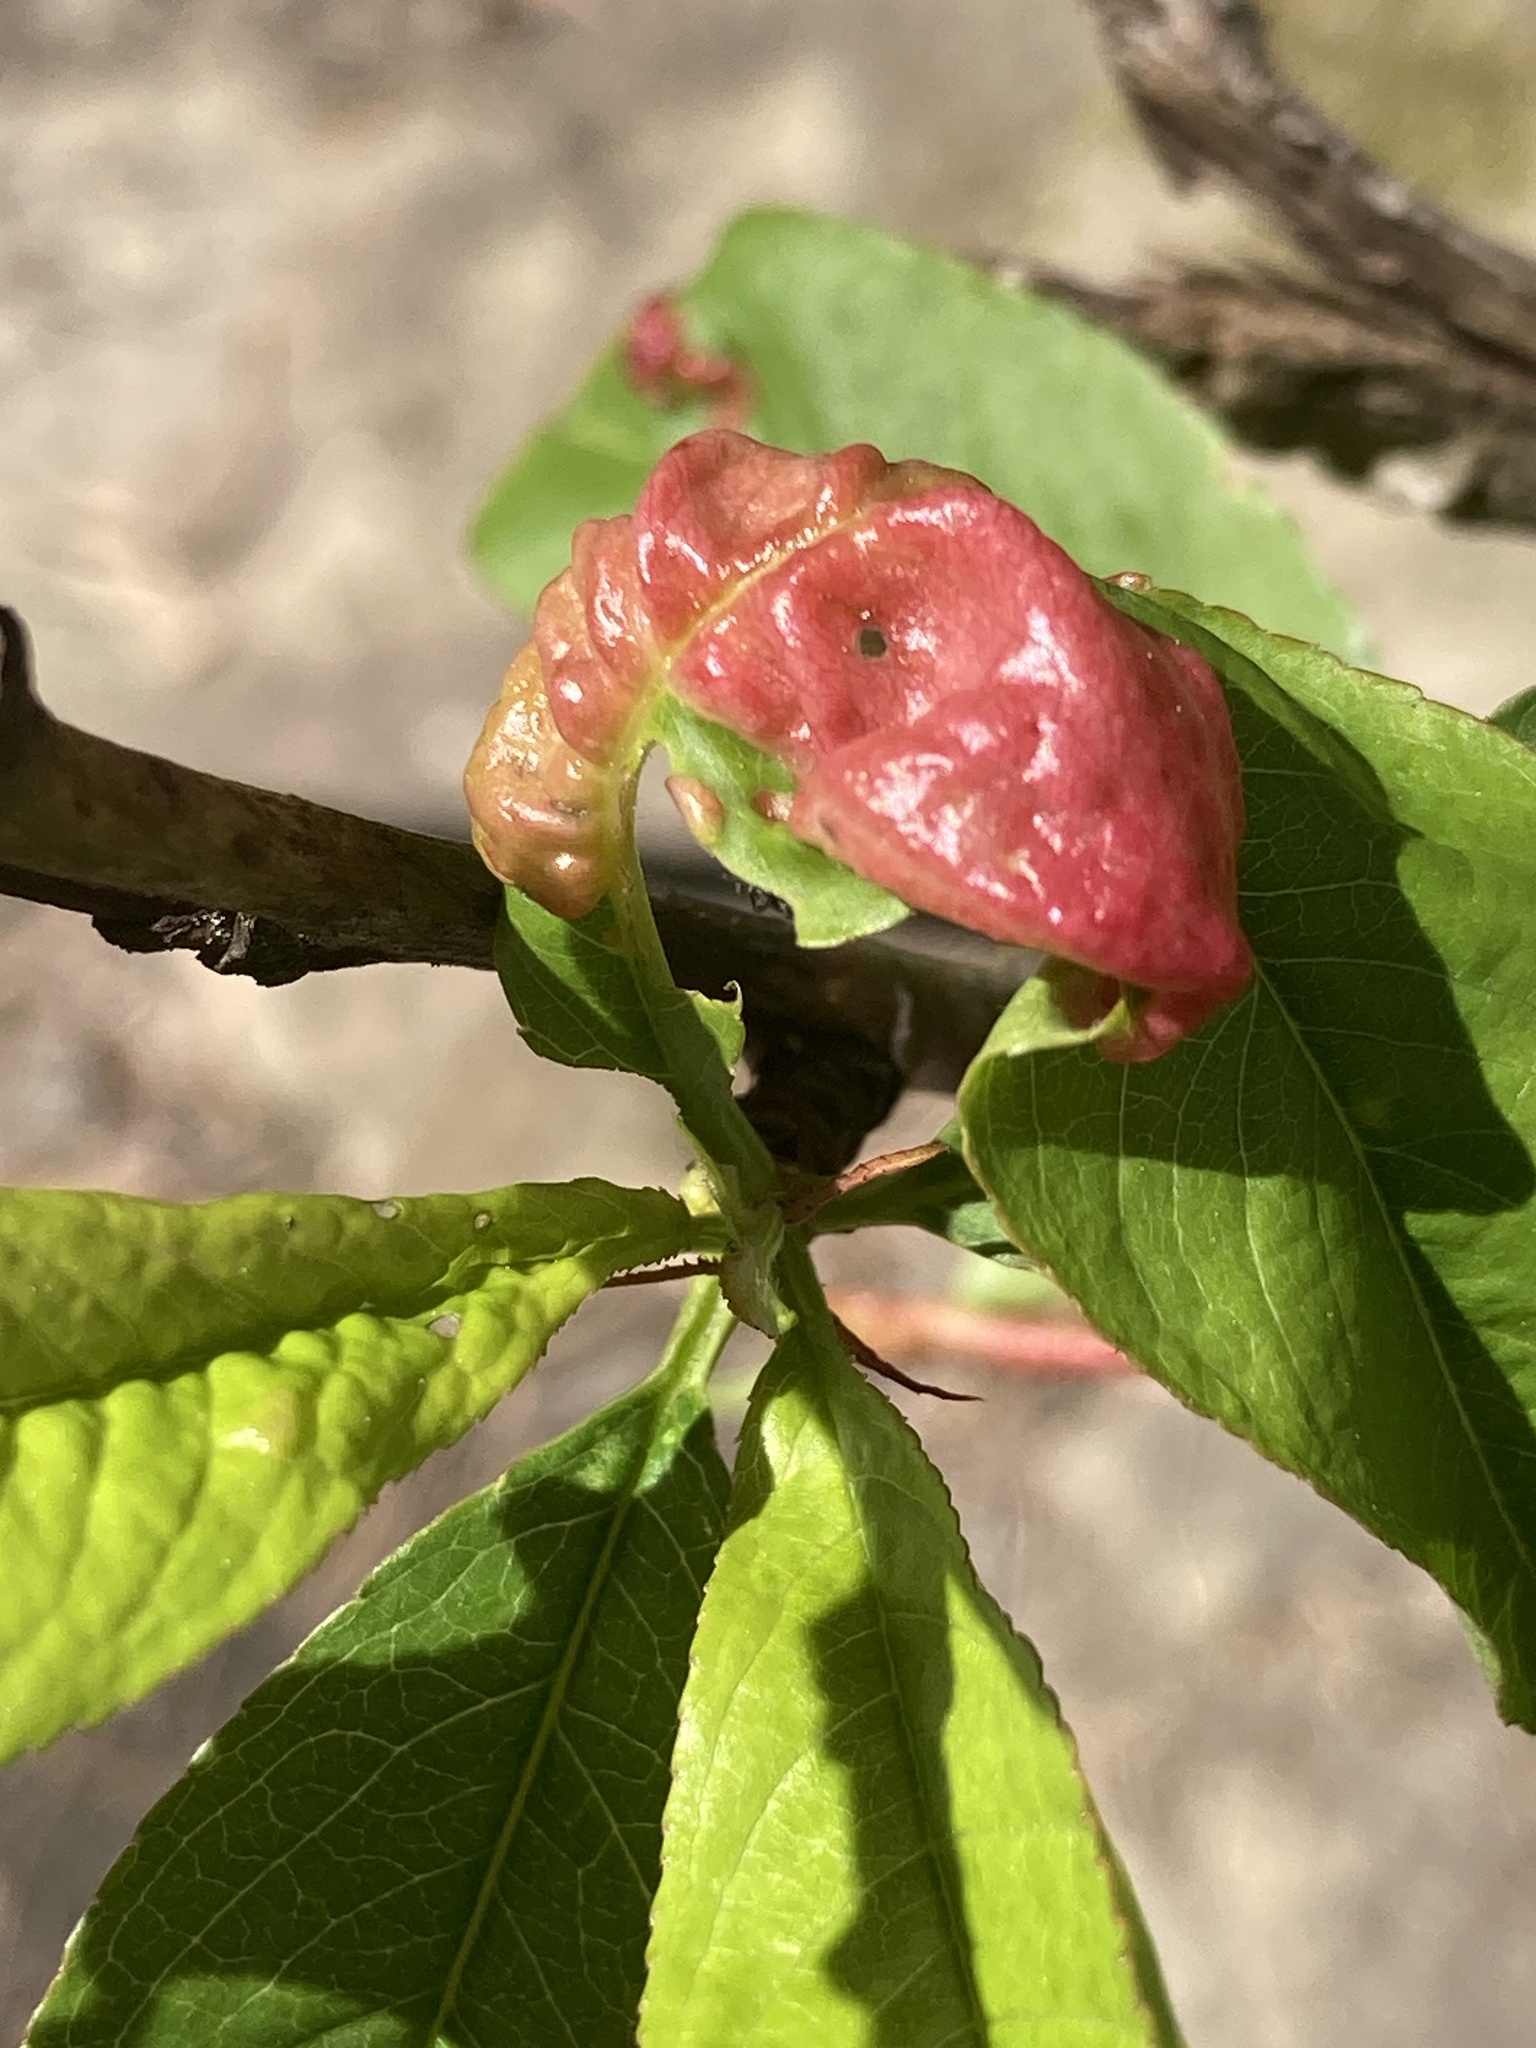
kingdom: Fungi
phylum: Ascomycota
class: Taphrinomycetes
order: Taphrinales
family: Taphrinaceae
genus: Taphrina
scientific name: Taphrina deformans
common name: Peach leaf curl
